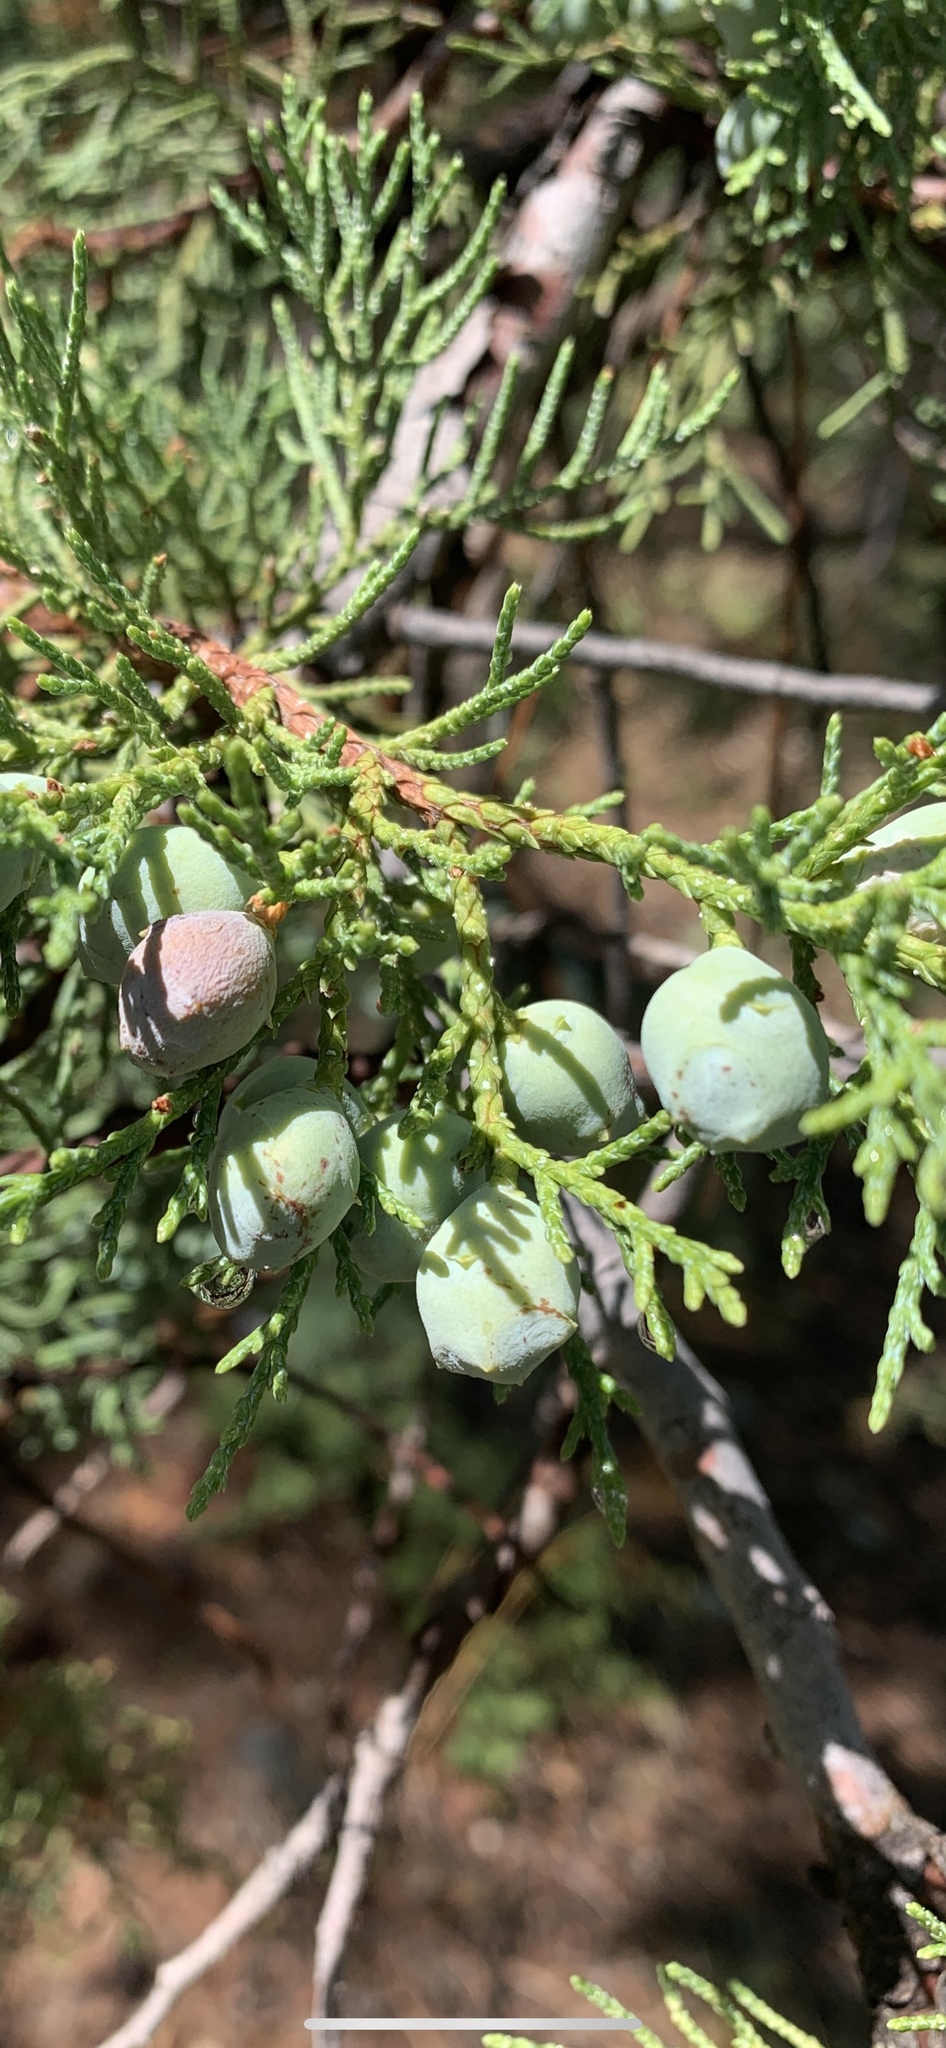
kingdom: Plantae
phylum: Tracheophyta
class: Pinopsida
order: Pinales
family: Cupressaceae
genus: Juniperus
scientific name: Juniperus deppeana
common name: Alligator juniper
